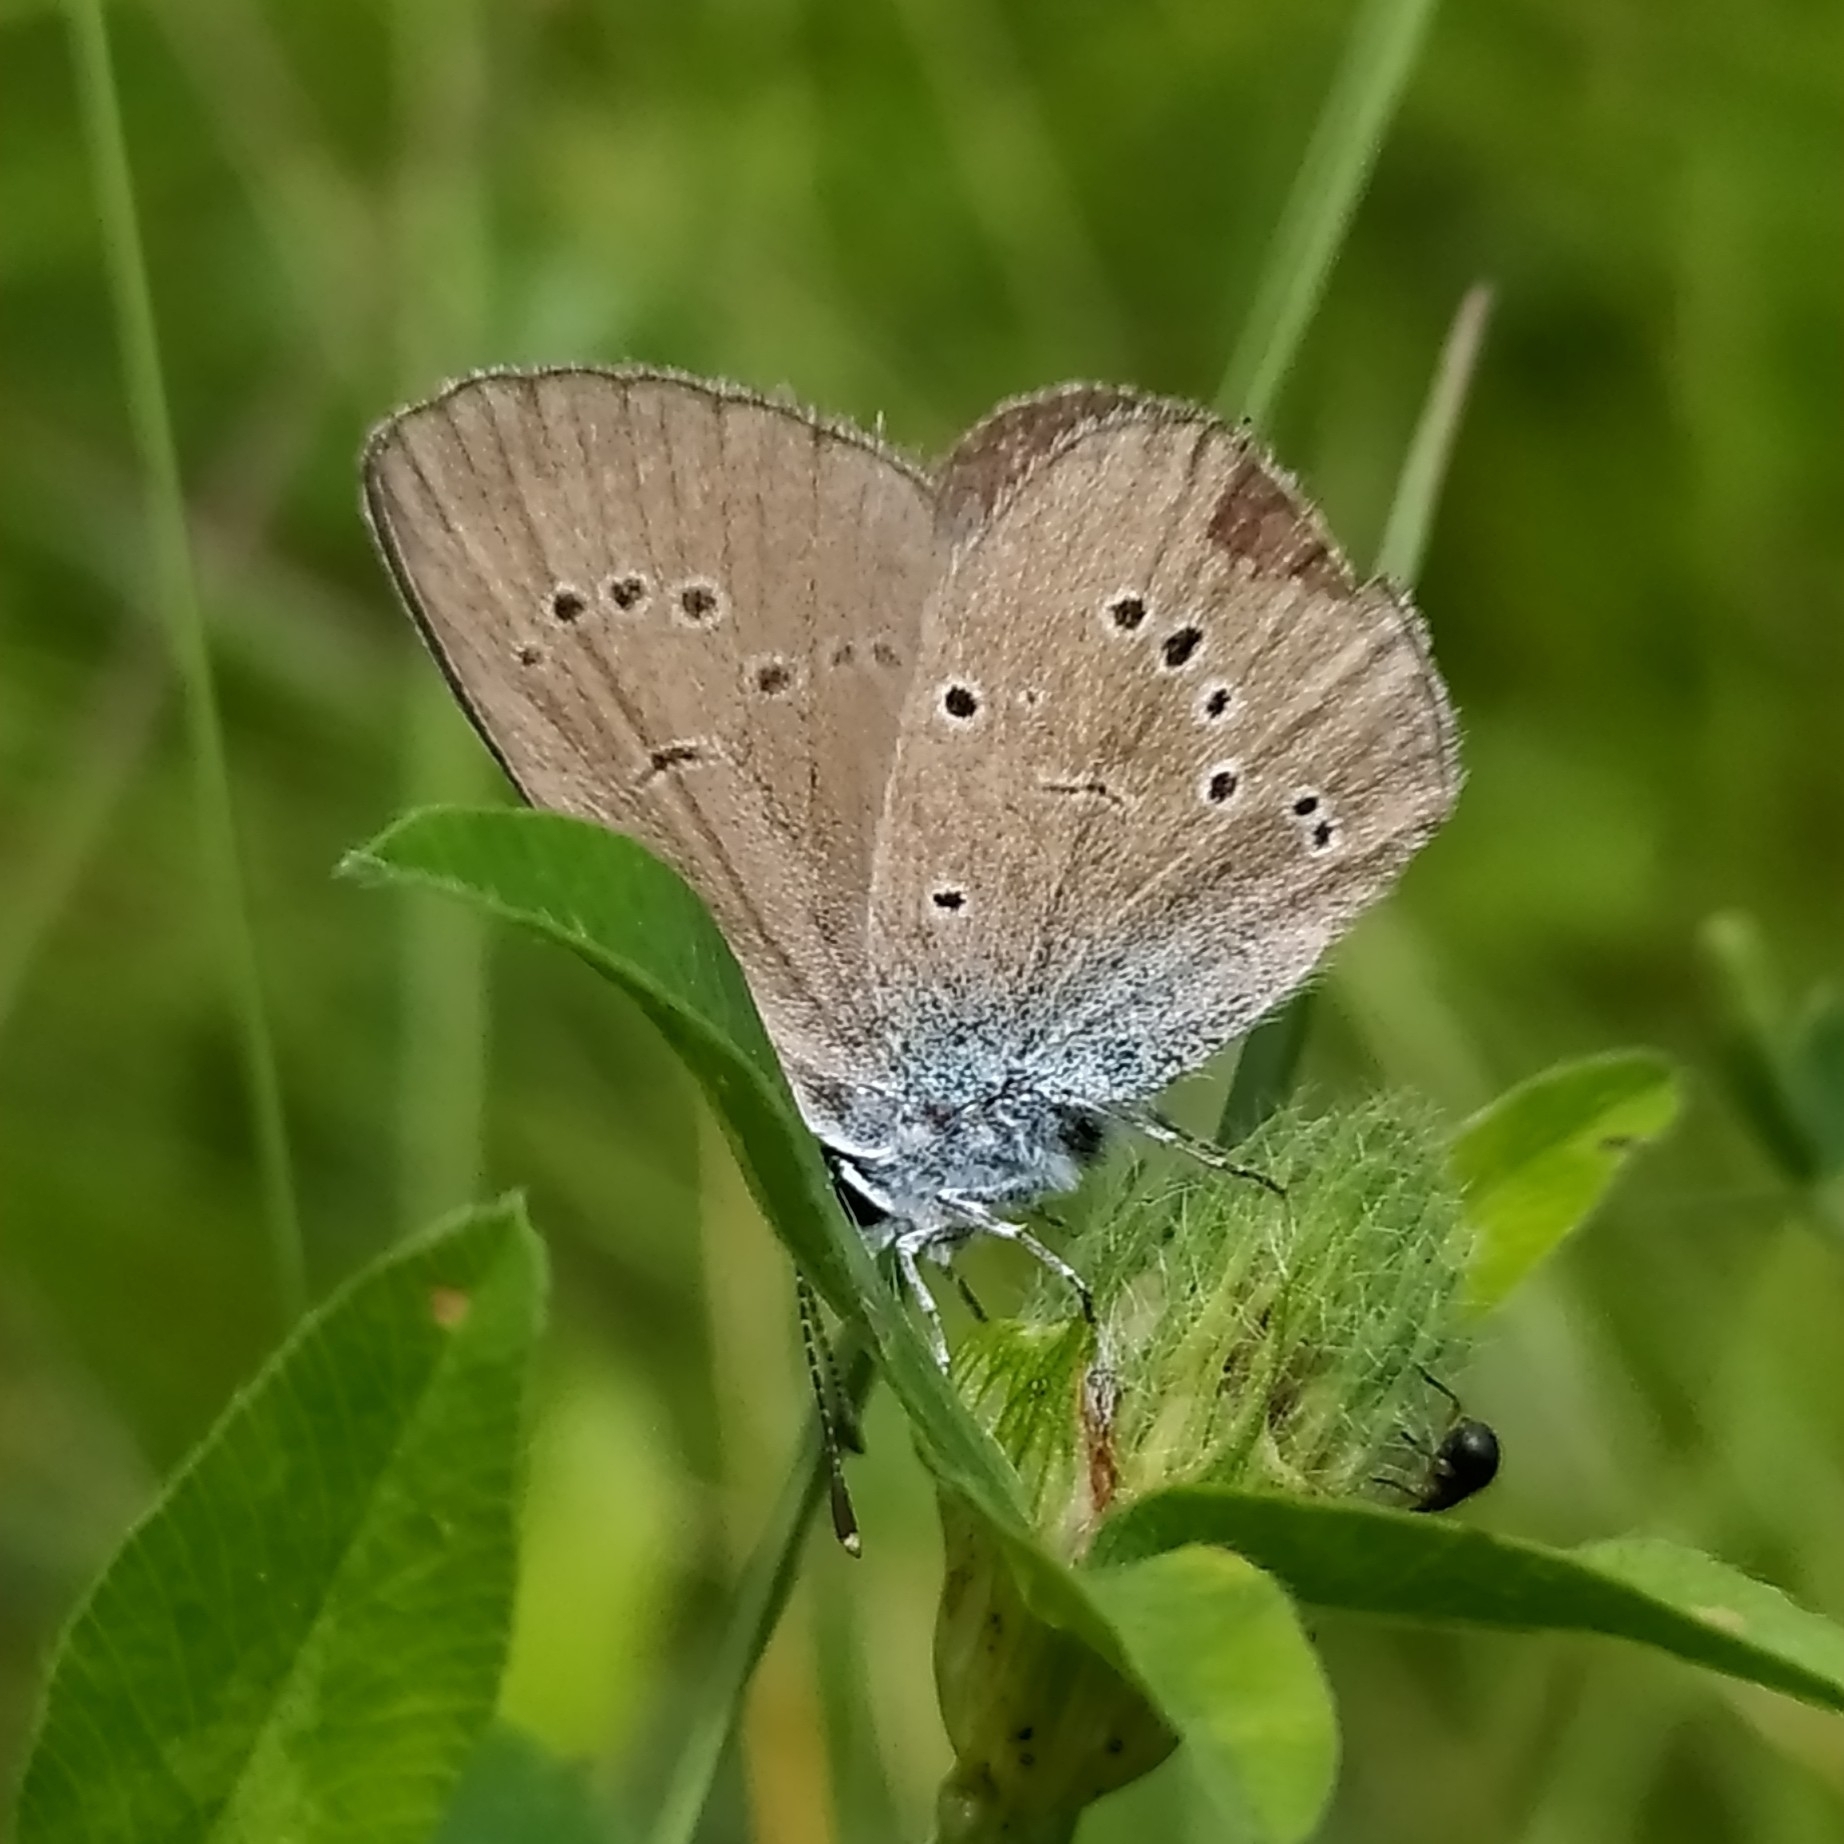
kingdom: Animalia
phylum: Arthropoda
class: Insecta
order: Lepidoptera
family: Lycaenidae
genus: Cyaniris
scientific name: Cyaniris semiargus
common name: Mazarine blue
